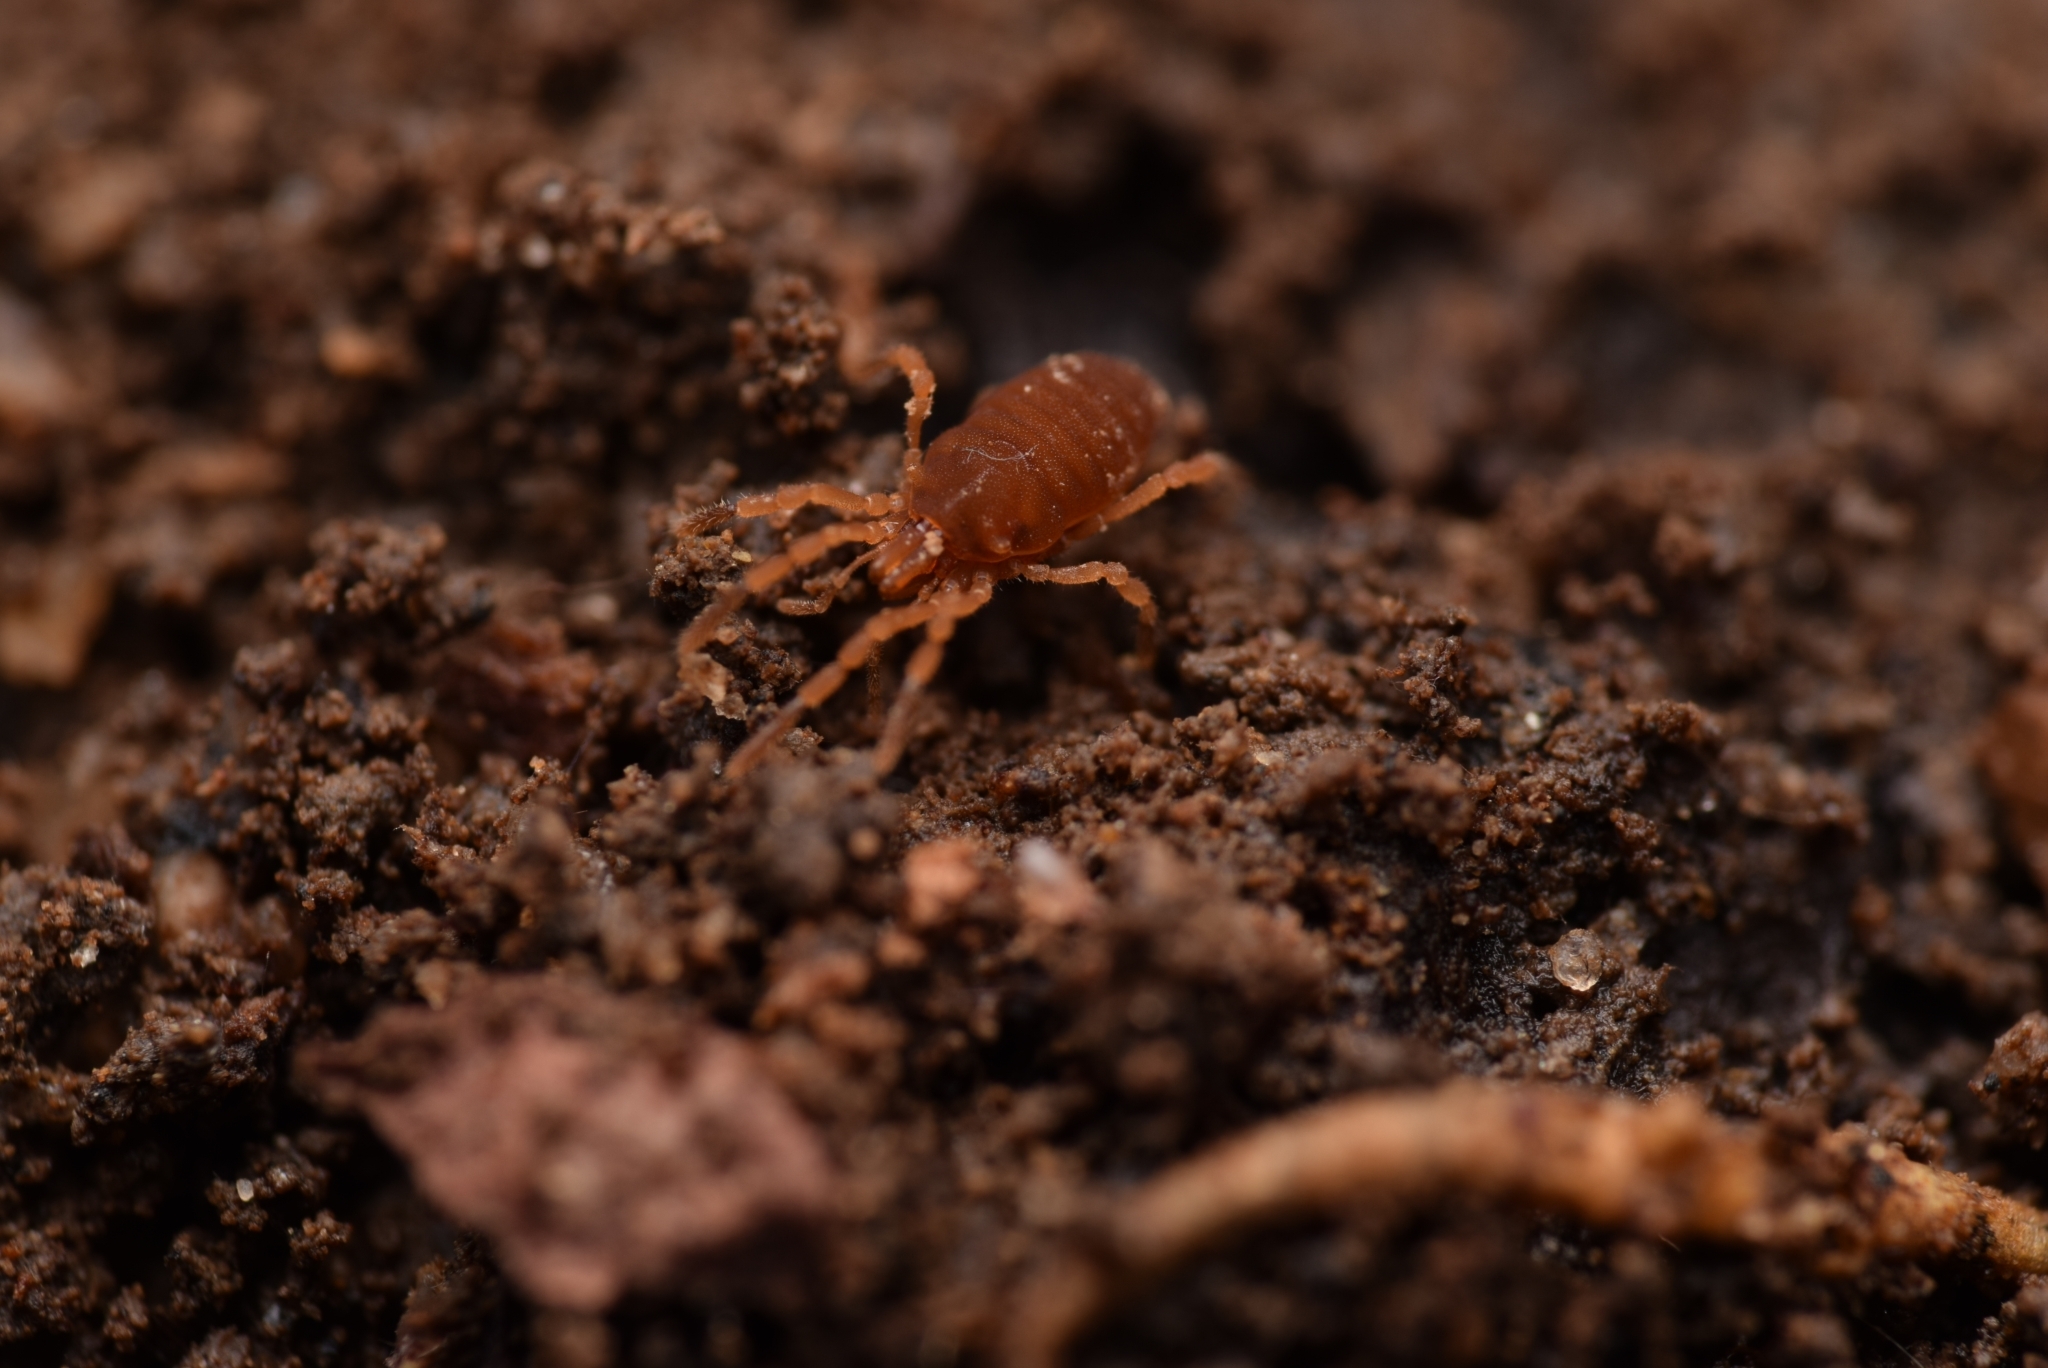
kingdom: Animalia
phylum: Arthropoda
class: Arachnida
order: Opiliones
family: Sironidae
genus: Siro
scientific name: Siro rubens
